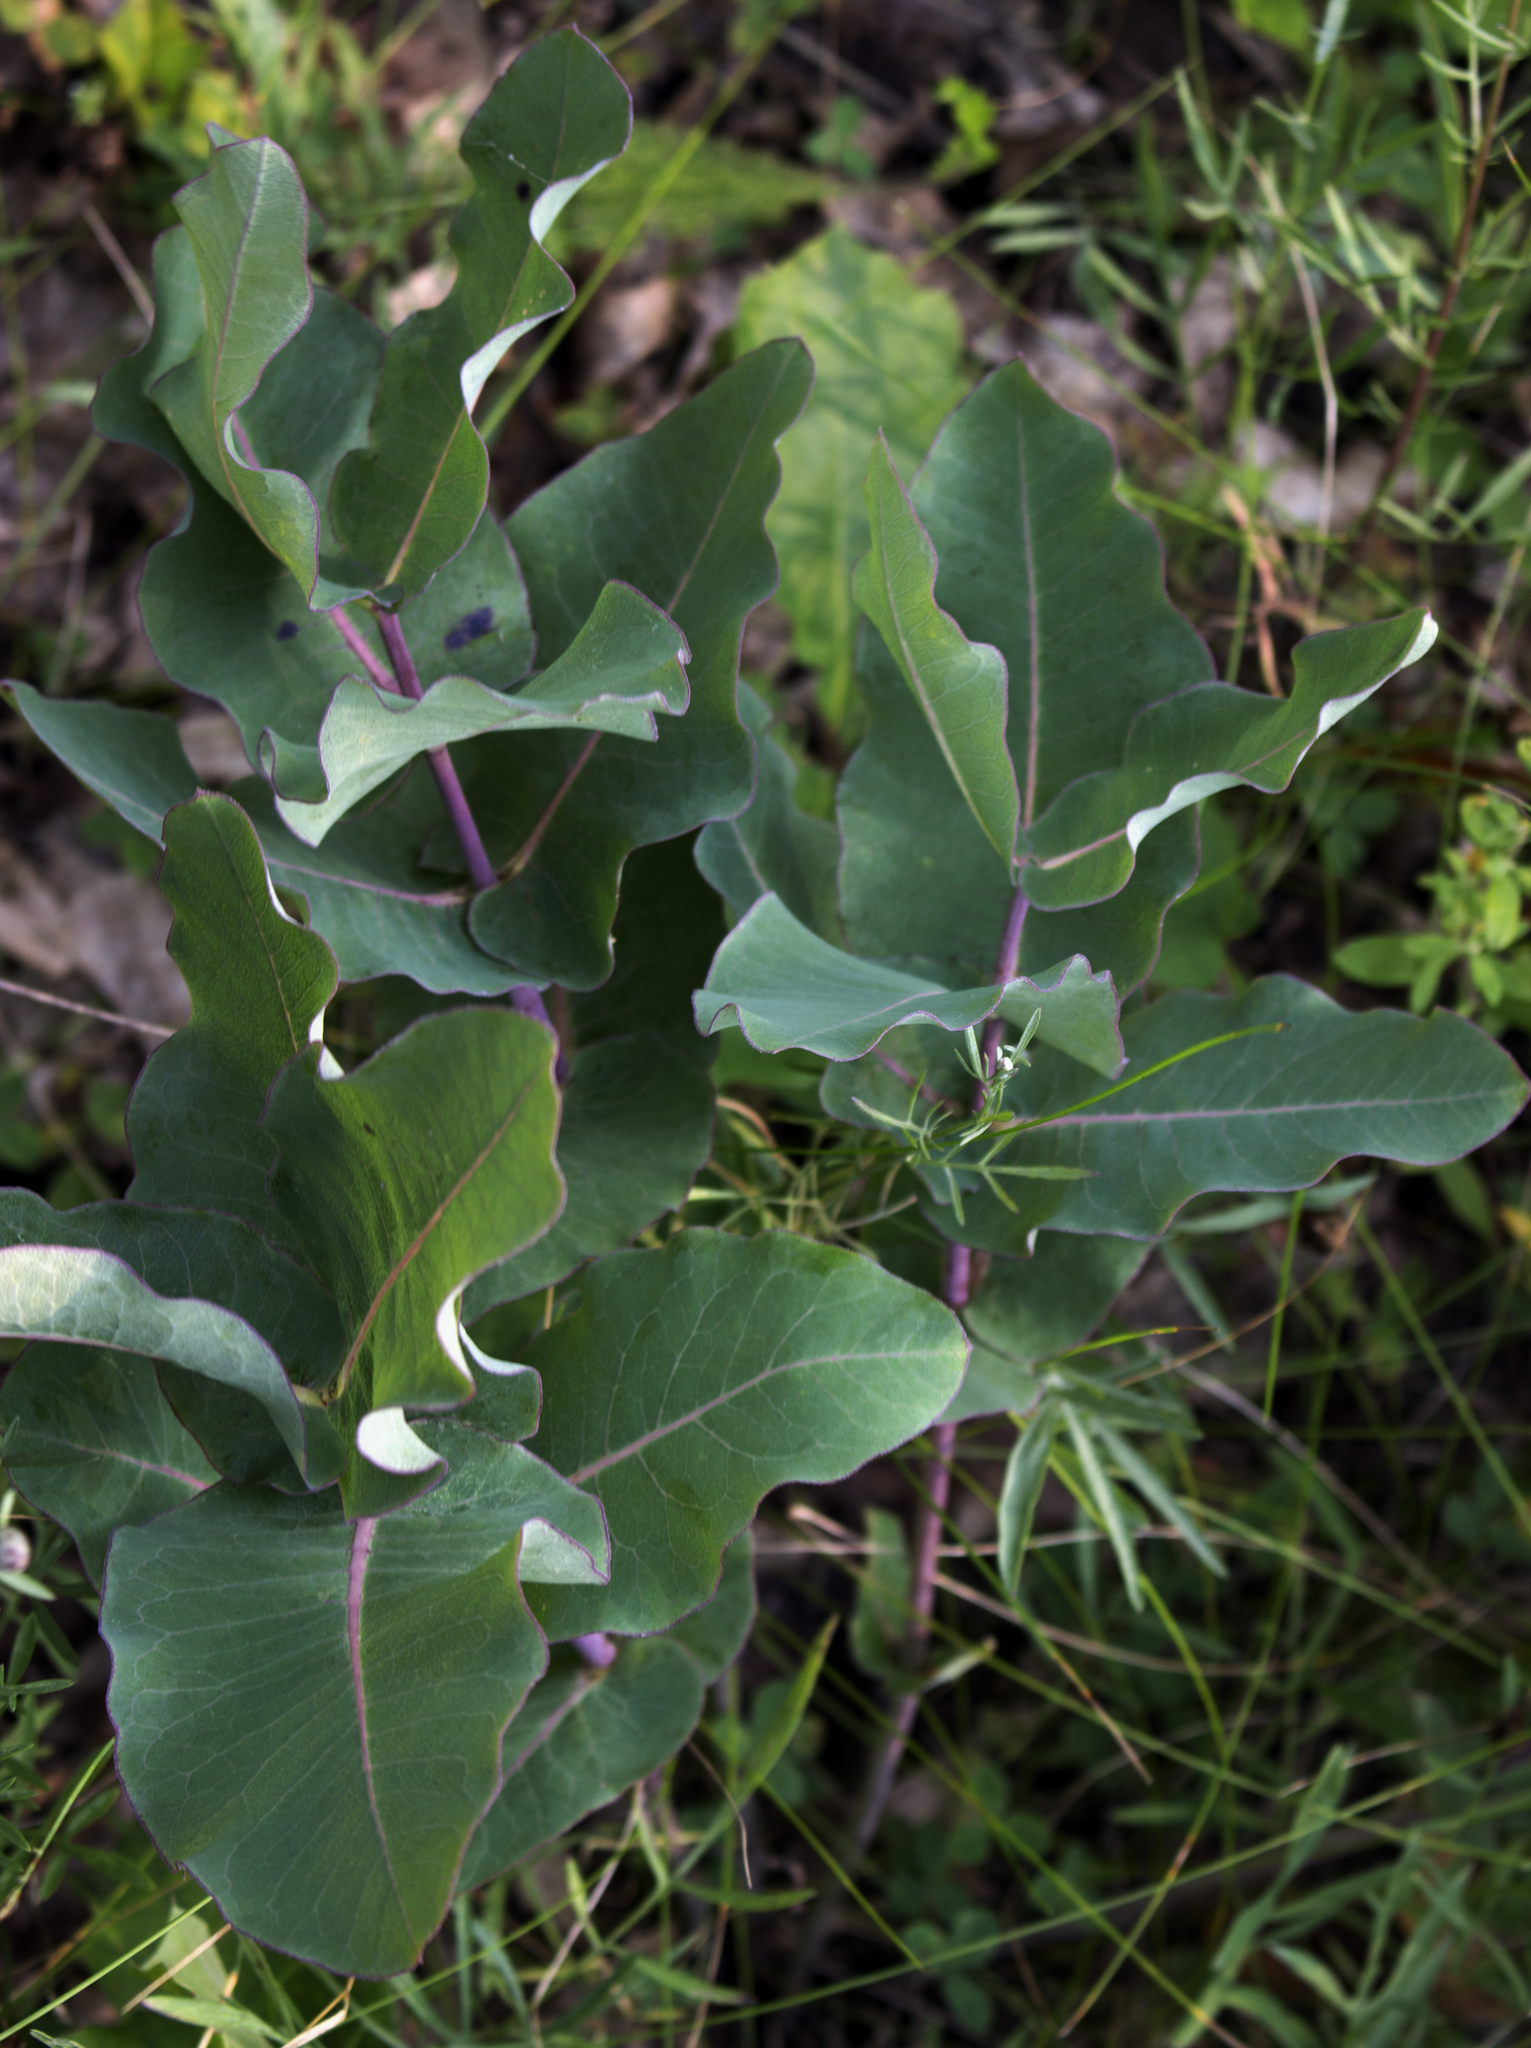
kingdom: Plantae
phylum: Tracheophyta
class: Magnoliopsida
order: Gentianales
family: Apocynaceae
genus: Asclepias
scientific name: Asclepias amplexicaulis
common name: Blunt-leaf milkweed
